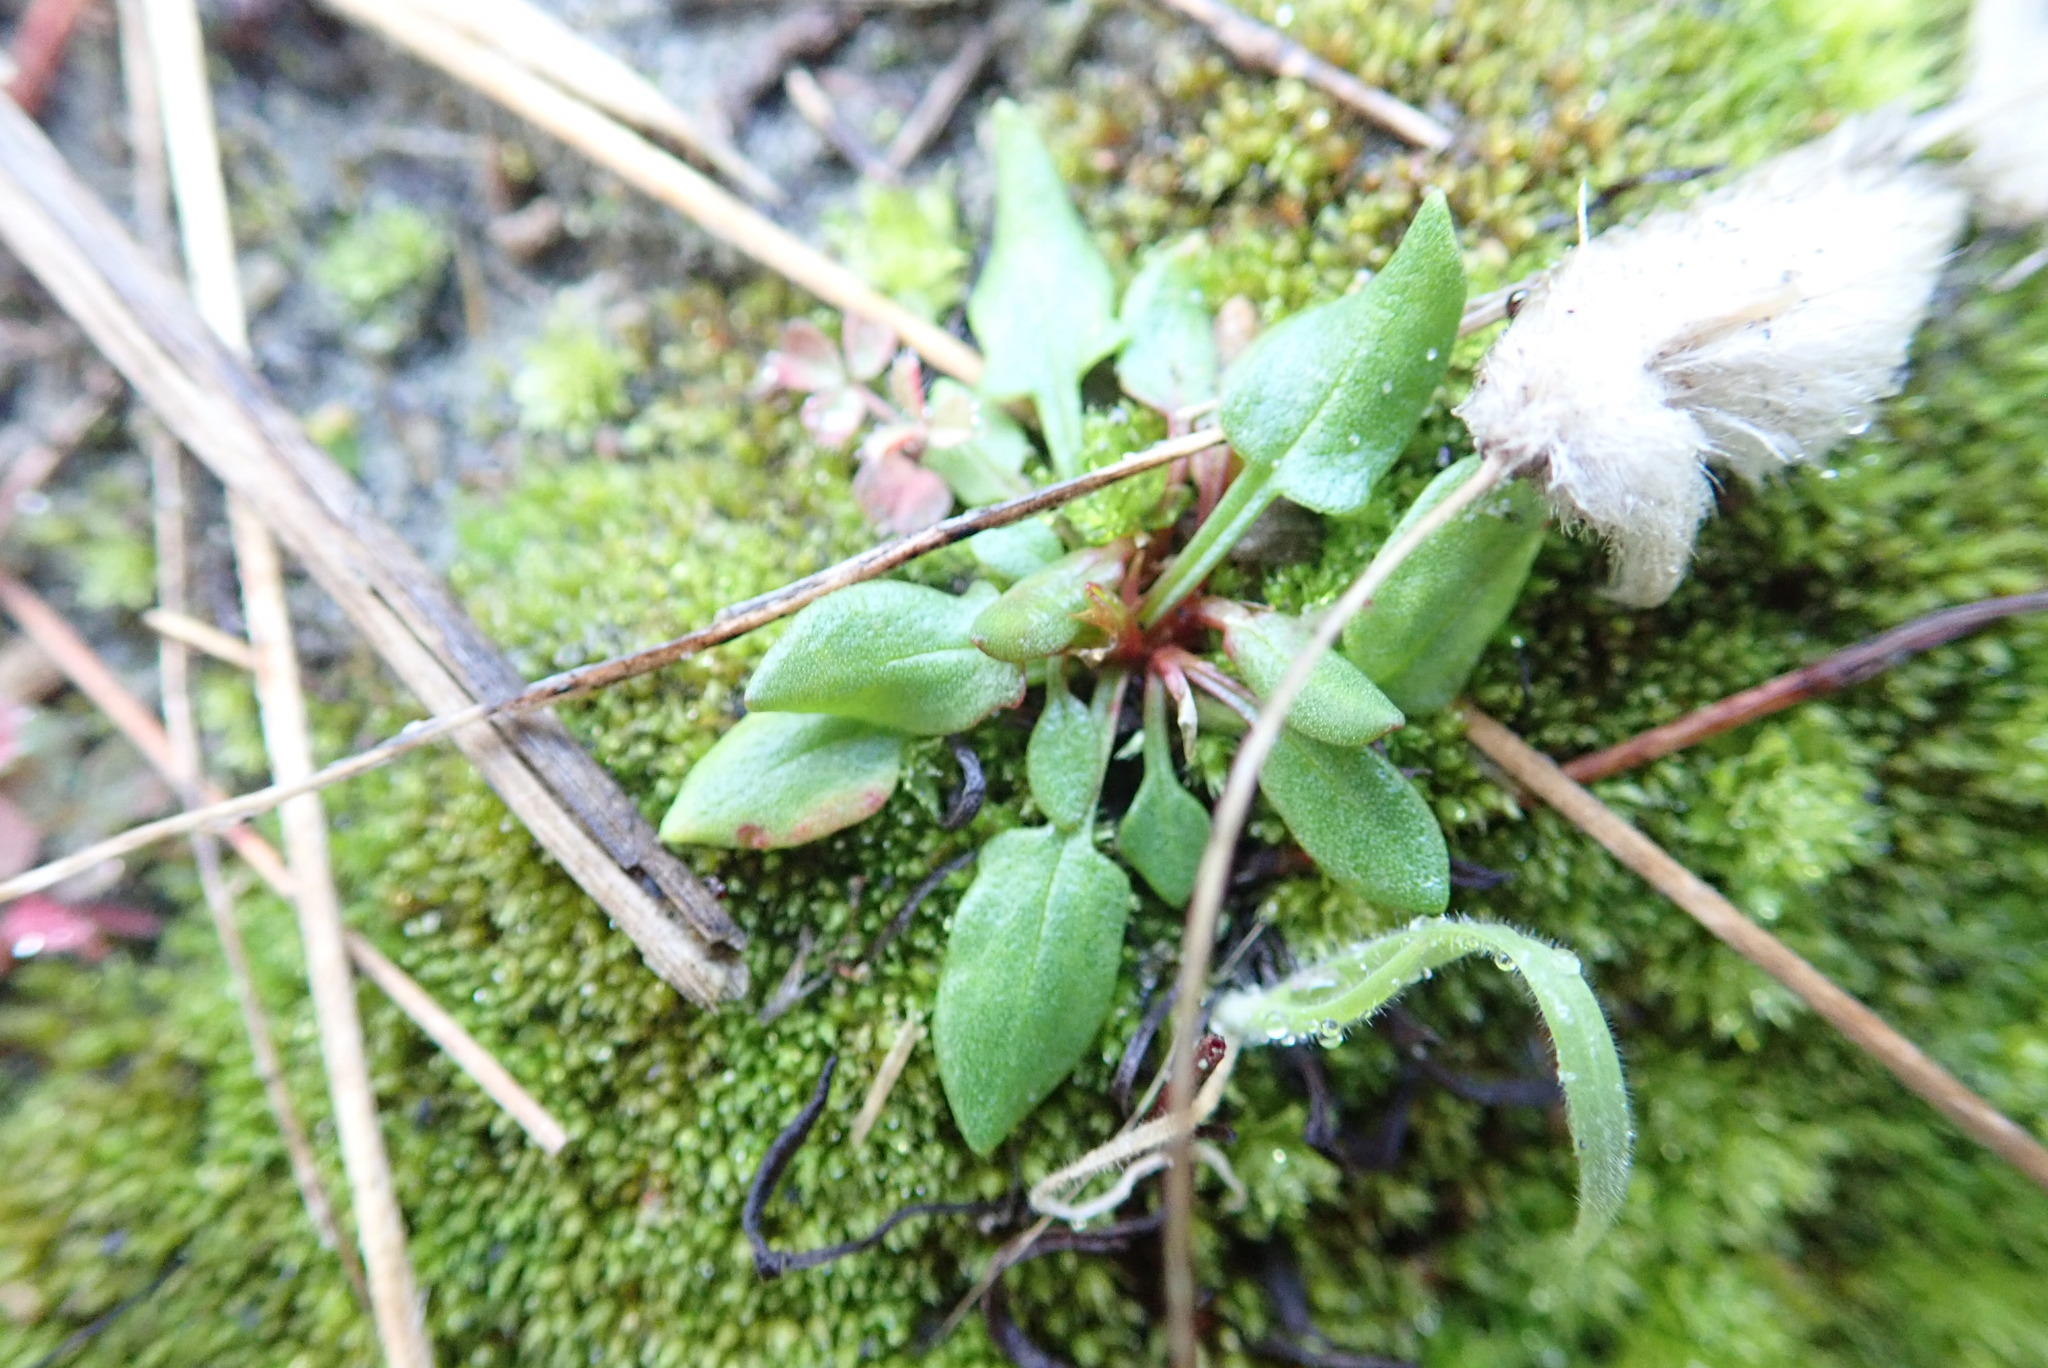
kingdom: Plantae
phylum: Tracheophyta
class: Magnoliopsida
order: Caryophyllales
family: Polygonaceae
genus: Rumex
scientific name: Rumex acetosella
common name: Common sheep sorrel
